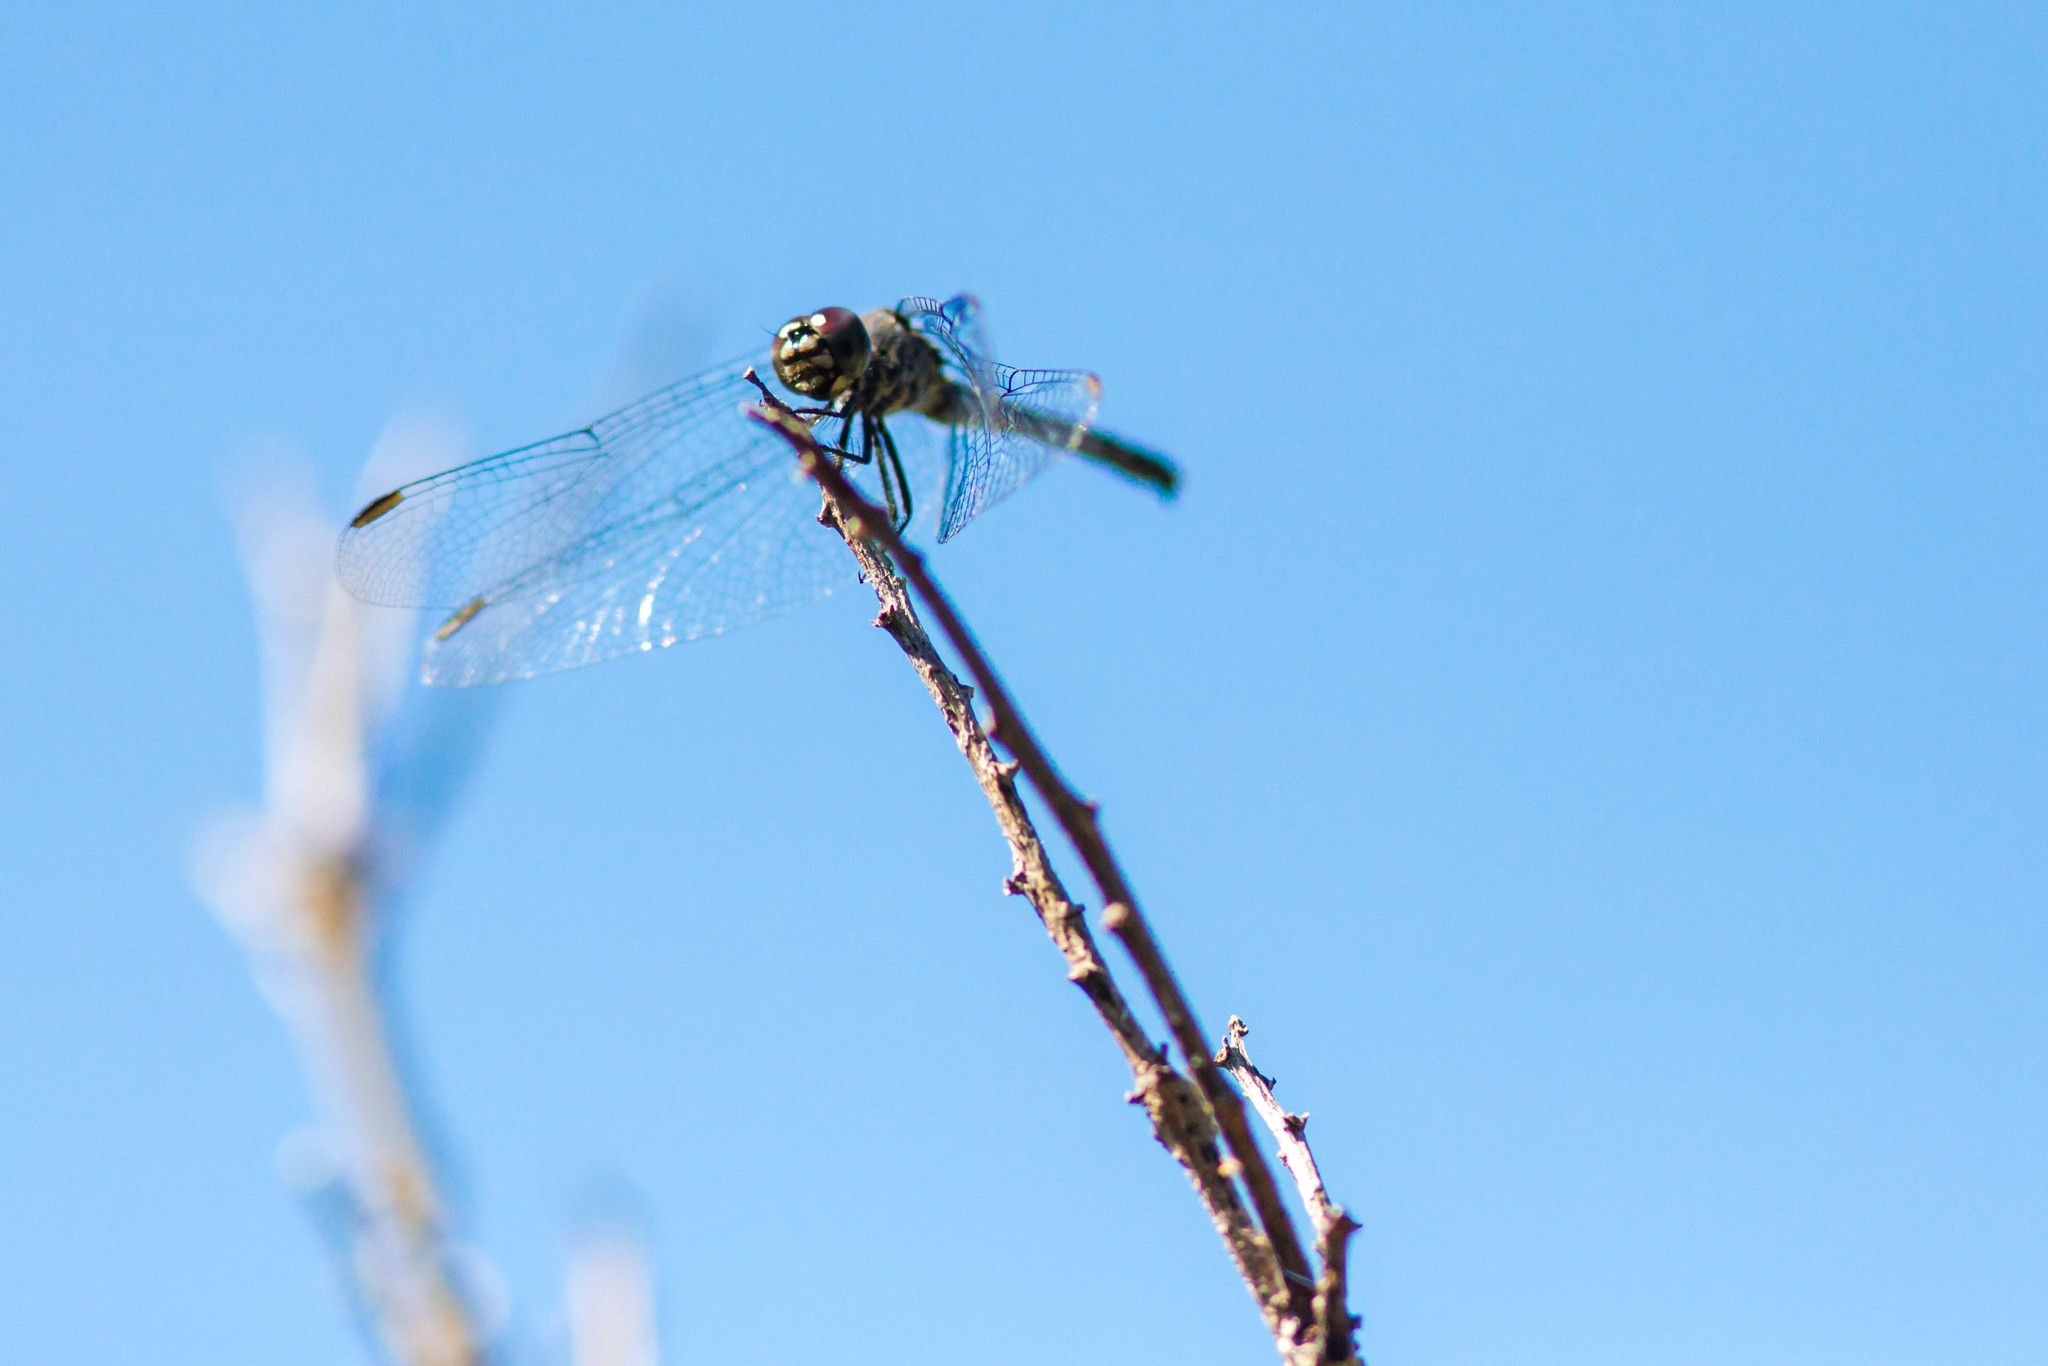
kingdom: Animalia
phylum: Arthropoda
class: Insecta
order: Odonata
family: Libellulidae
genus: Erythrodiplax
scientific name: Erythrodiplax berenice
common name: Seaside dragonlet
